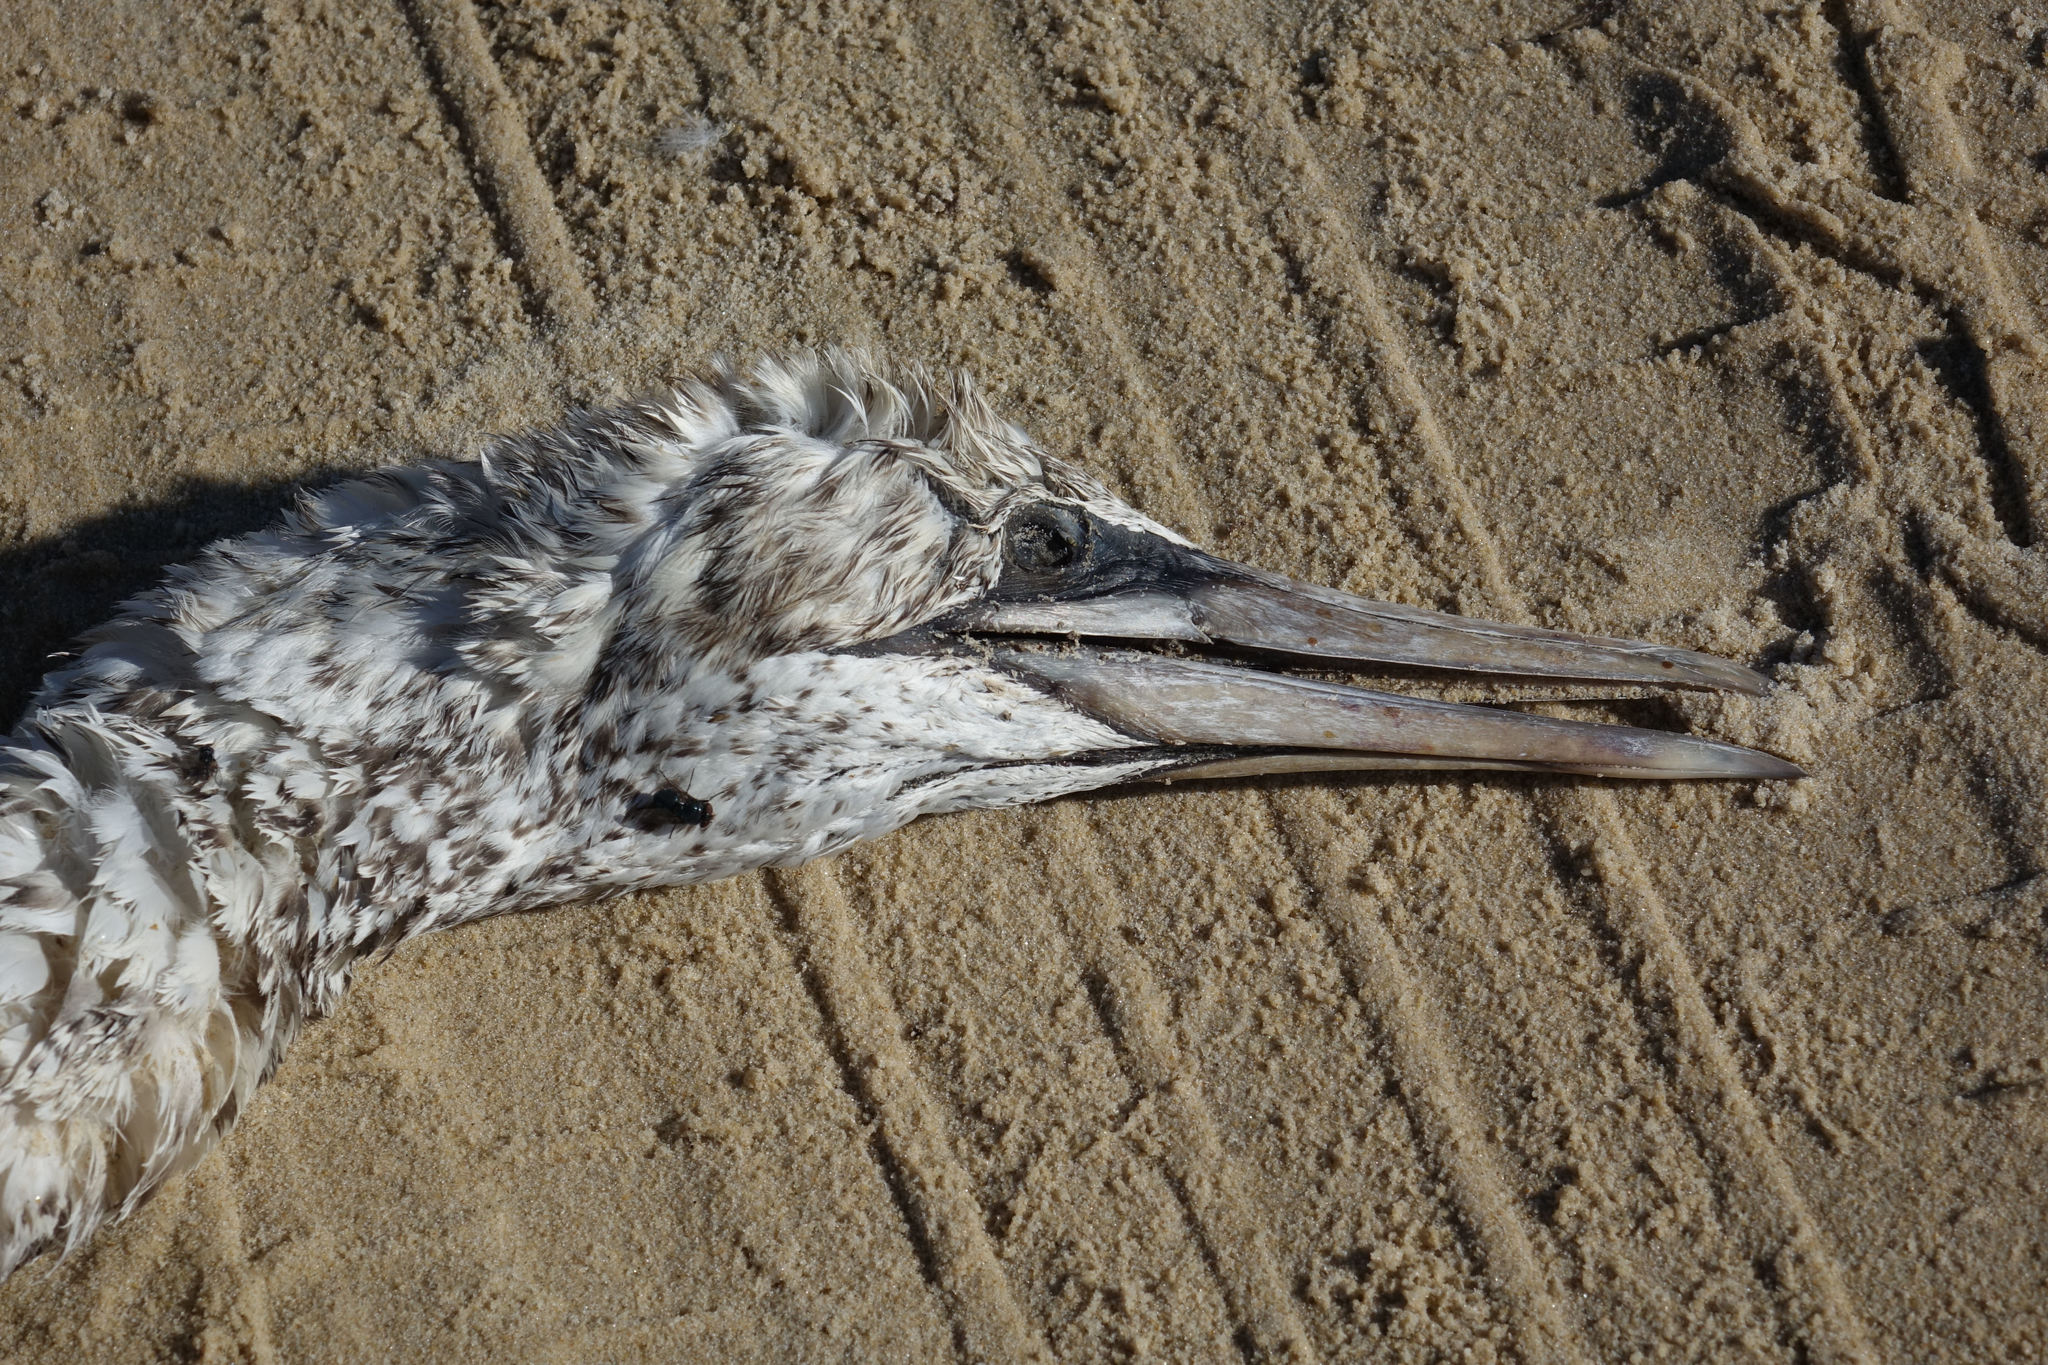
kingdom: Animalia
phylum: Chordata
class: Aves
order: Suliformes
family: Sulidae
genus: Morus
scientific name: Morus serrator
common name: Australasian gannet
